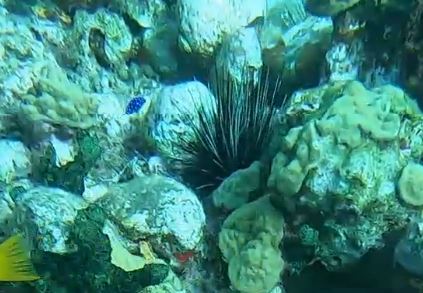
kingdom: Animalia
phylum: Chordata
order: Perciformes
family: Pomacentridae
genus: Microspathodon
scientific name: Microspathodon chrysurus
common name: Yellowtail damselfish
